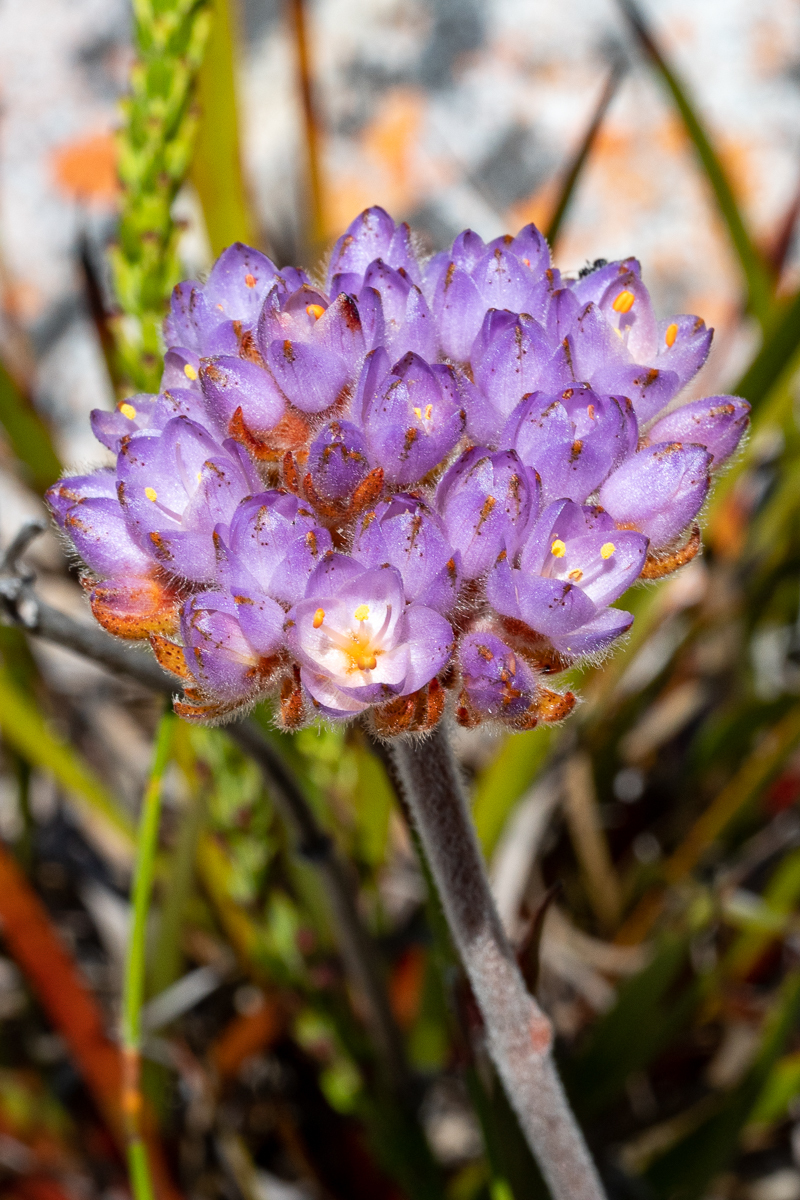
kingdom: Plantae
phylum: Tracheophyta
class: Liliopsida
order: Commelinales
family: Haemodoraceae
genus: Dilatris
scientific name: Dilatris pillansii
